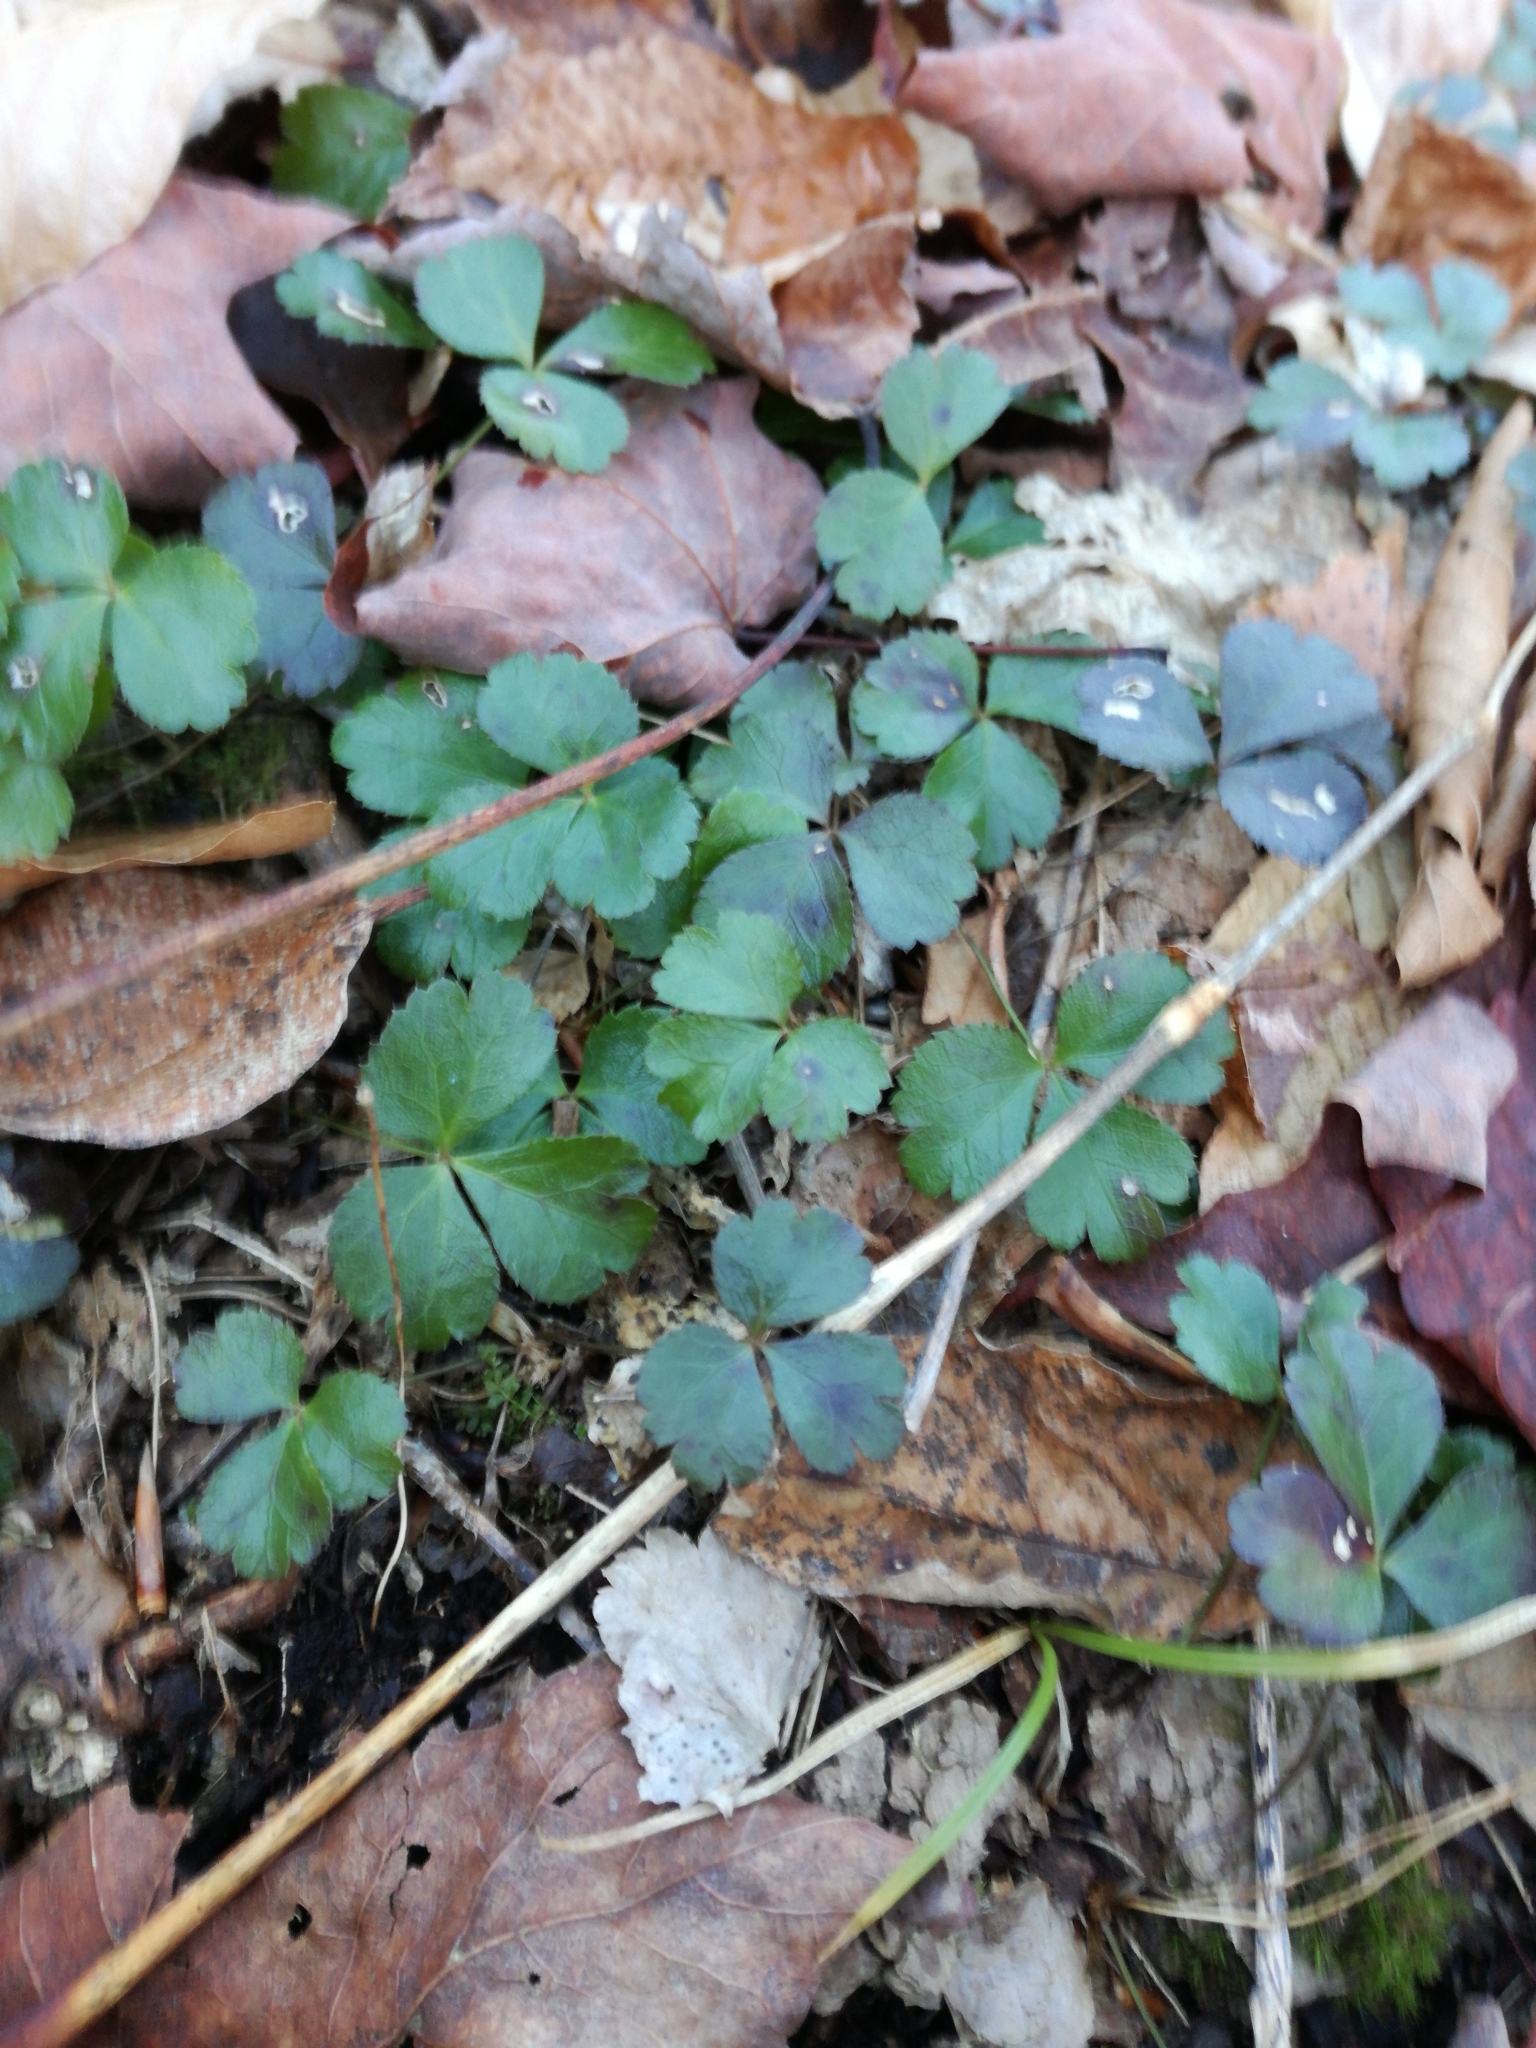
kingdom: Plantae
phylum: Tracheophyta
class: Magnoliopsida
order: Ranunculales
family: Ranunculaceae
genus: Coptis
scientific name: Coptis trifolia
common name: Canker-root
